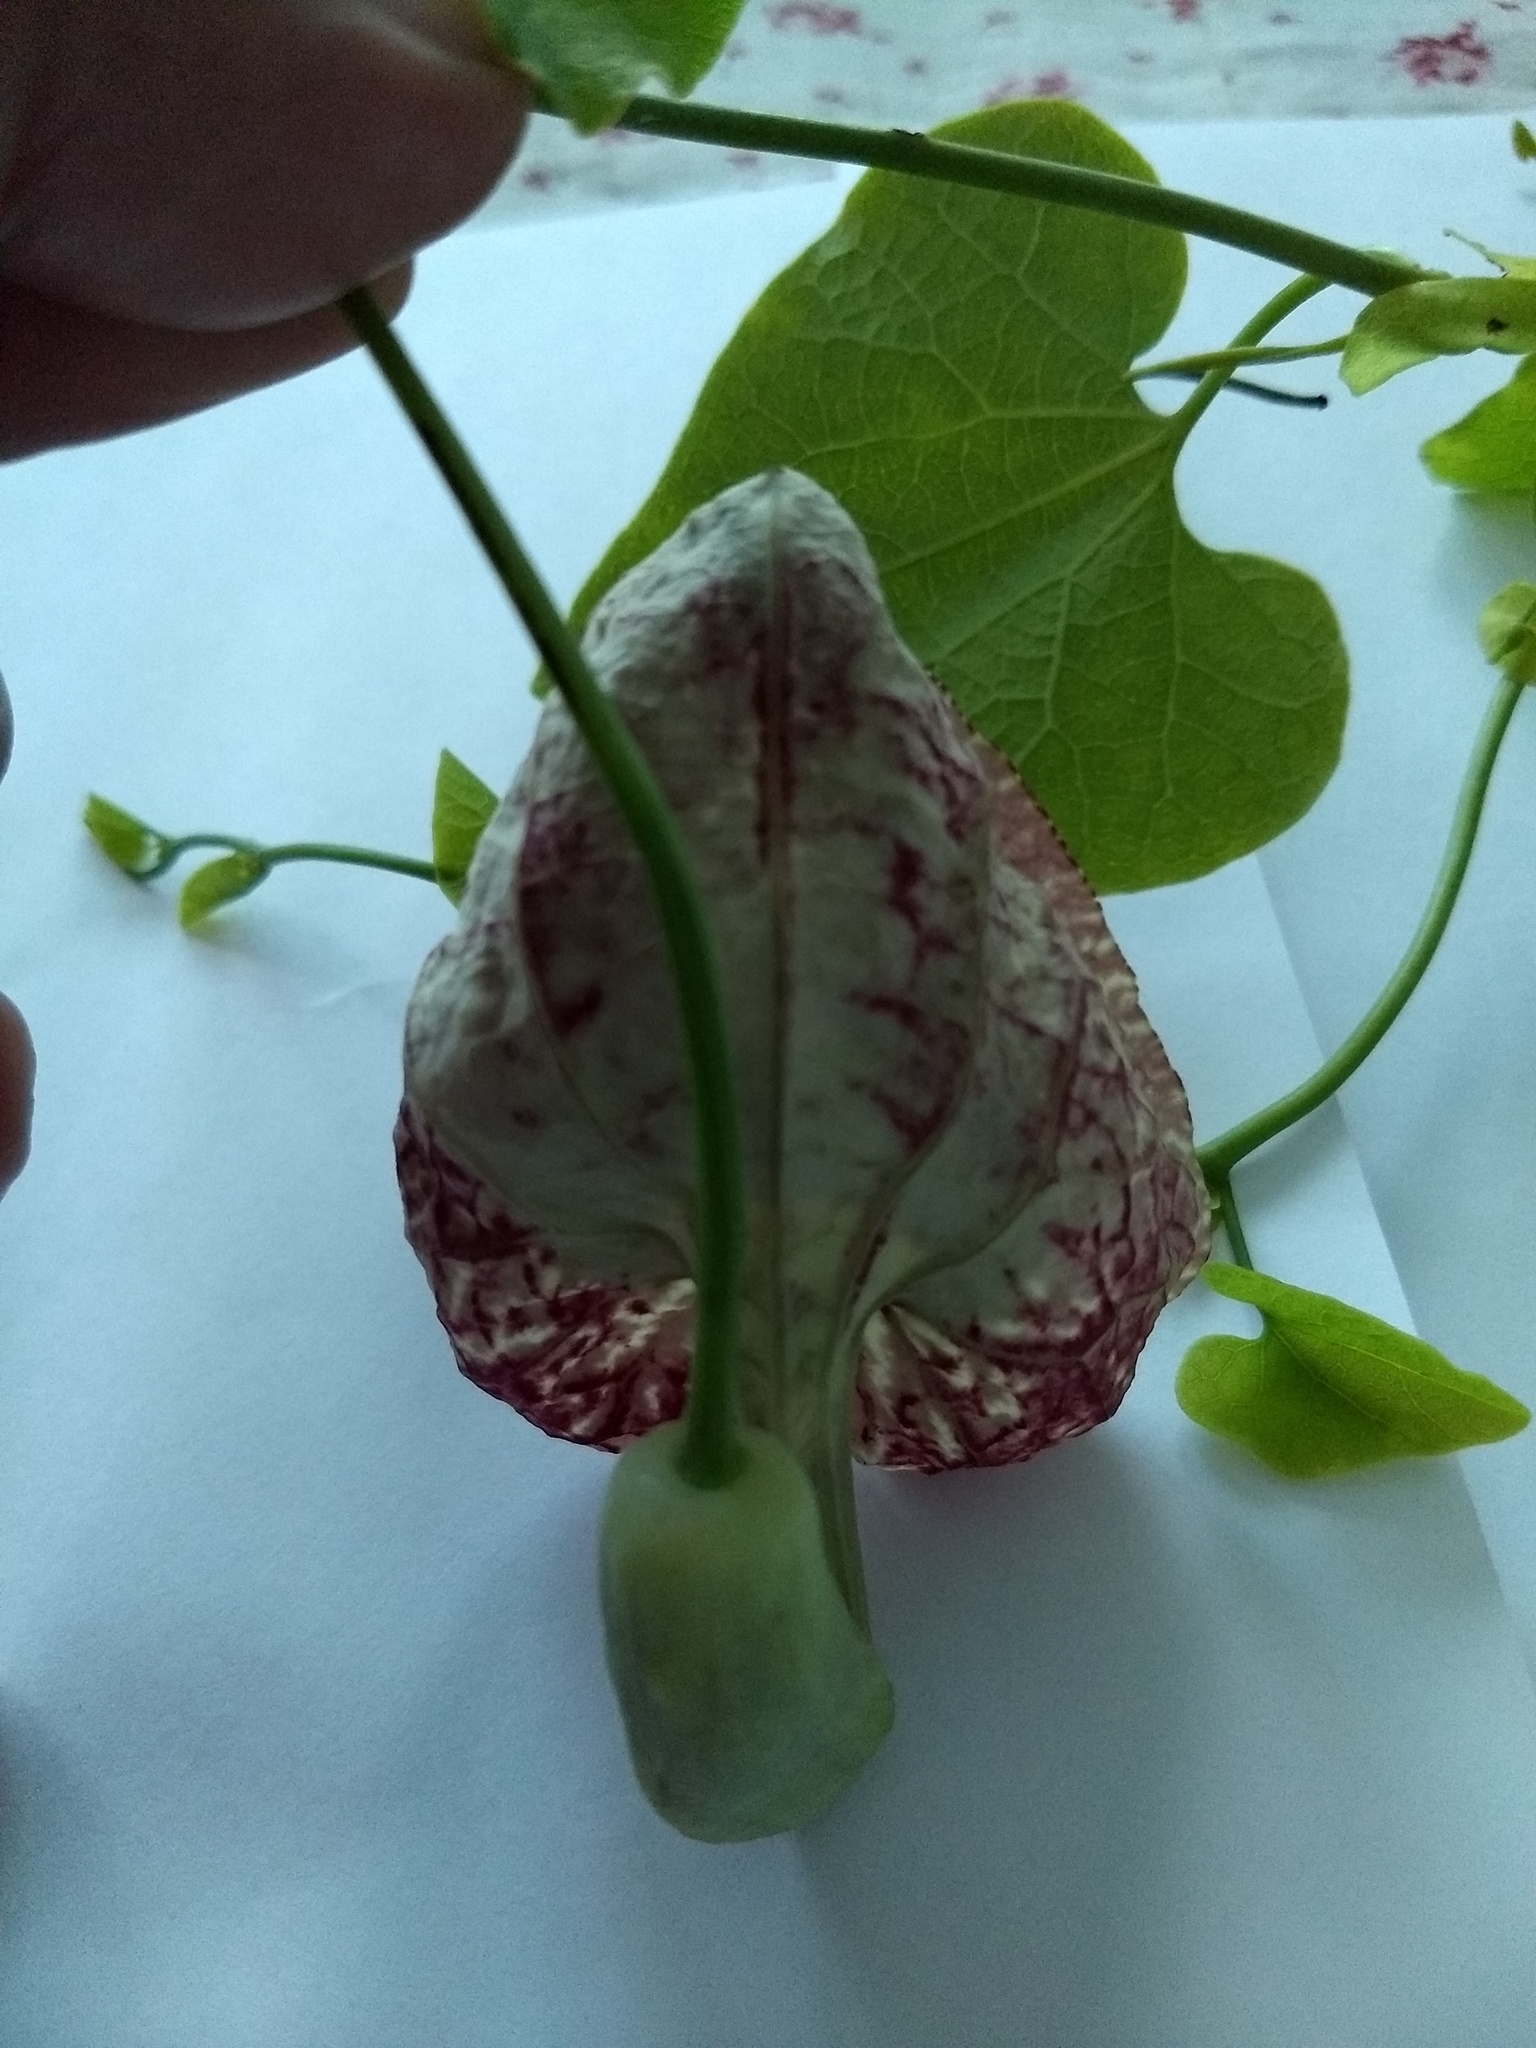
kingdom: Plantae
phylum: Tracheophyta
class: Magnoliopsida
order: Piperales
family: Aristolochiaceae
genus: Aristolochia
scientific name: Aristolochia littoralis
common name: Duck
